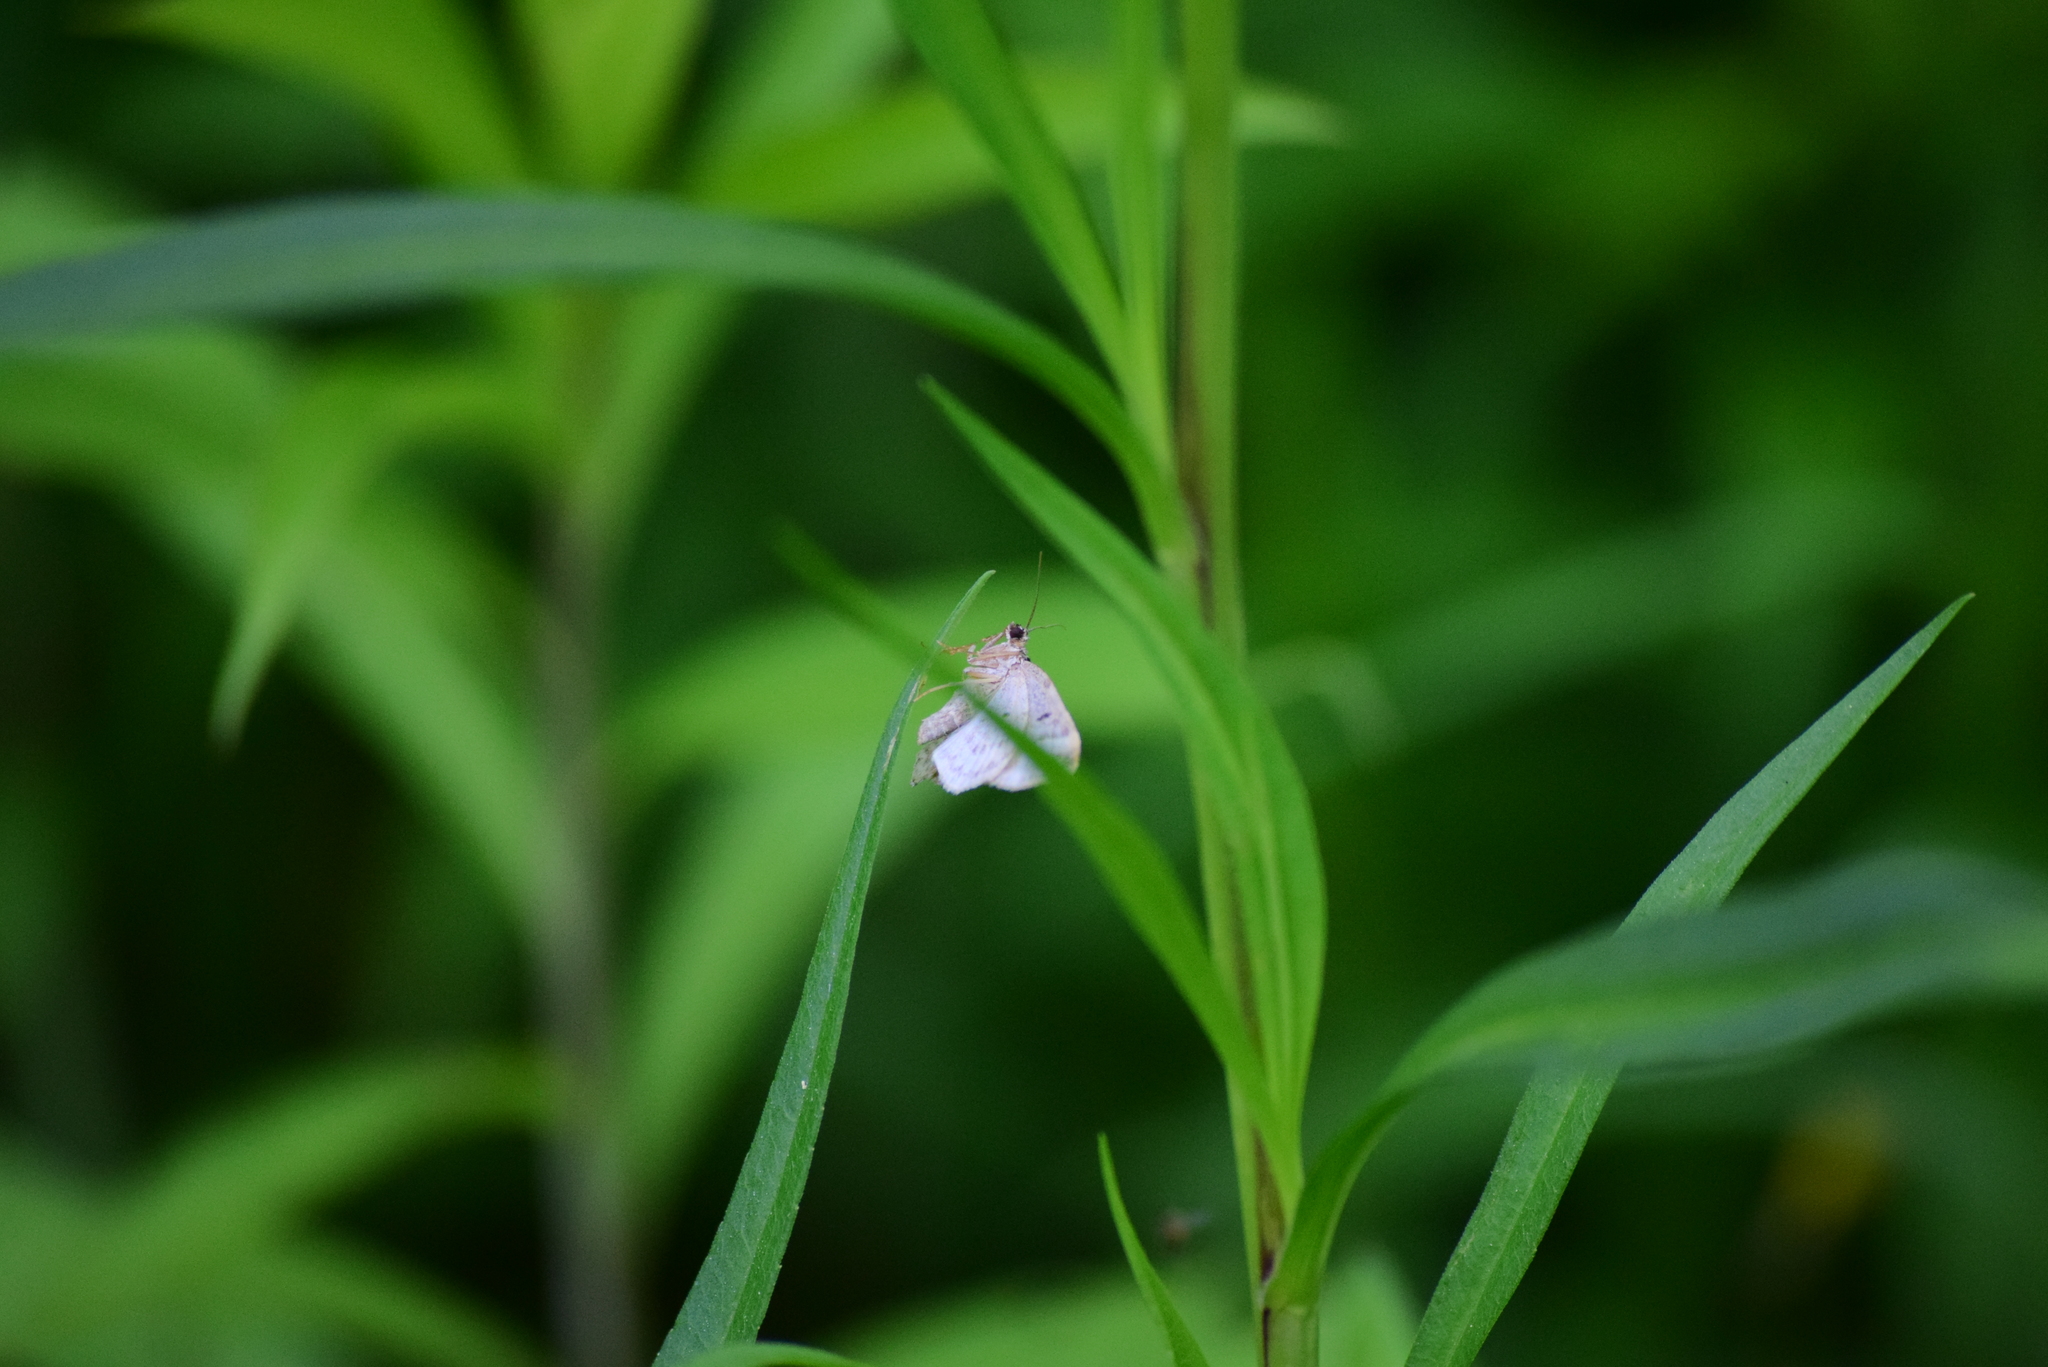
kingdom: Animalia
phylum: Arthropoda
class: Insecta
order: Lepidoptera
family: Geometridae
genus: Epirrhoe
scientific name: Epirrhoe alternata
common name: Common carpet
